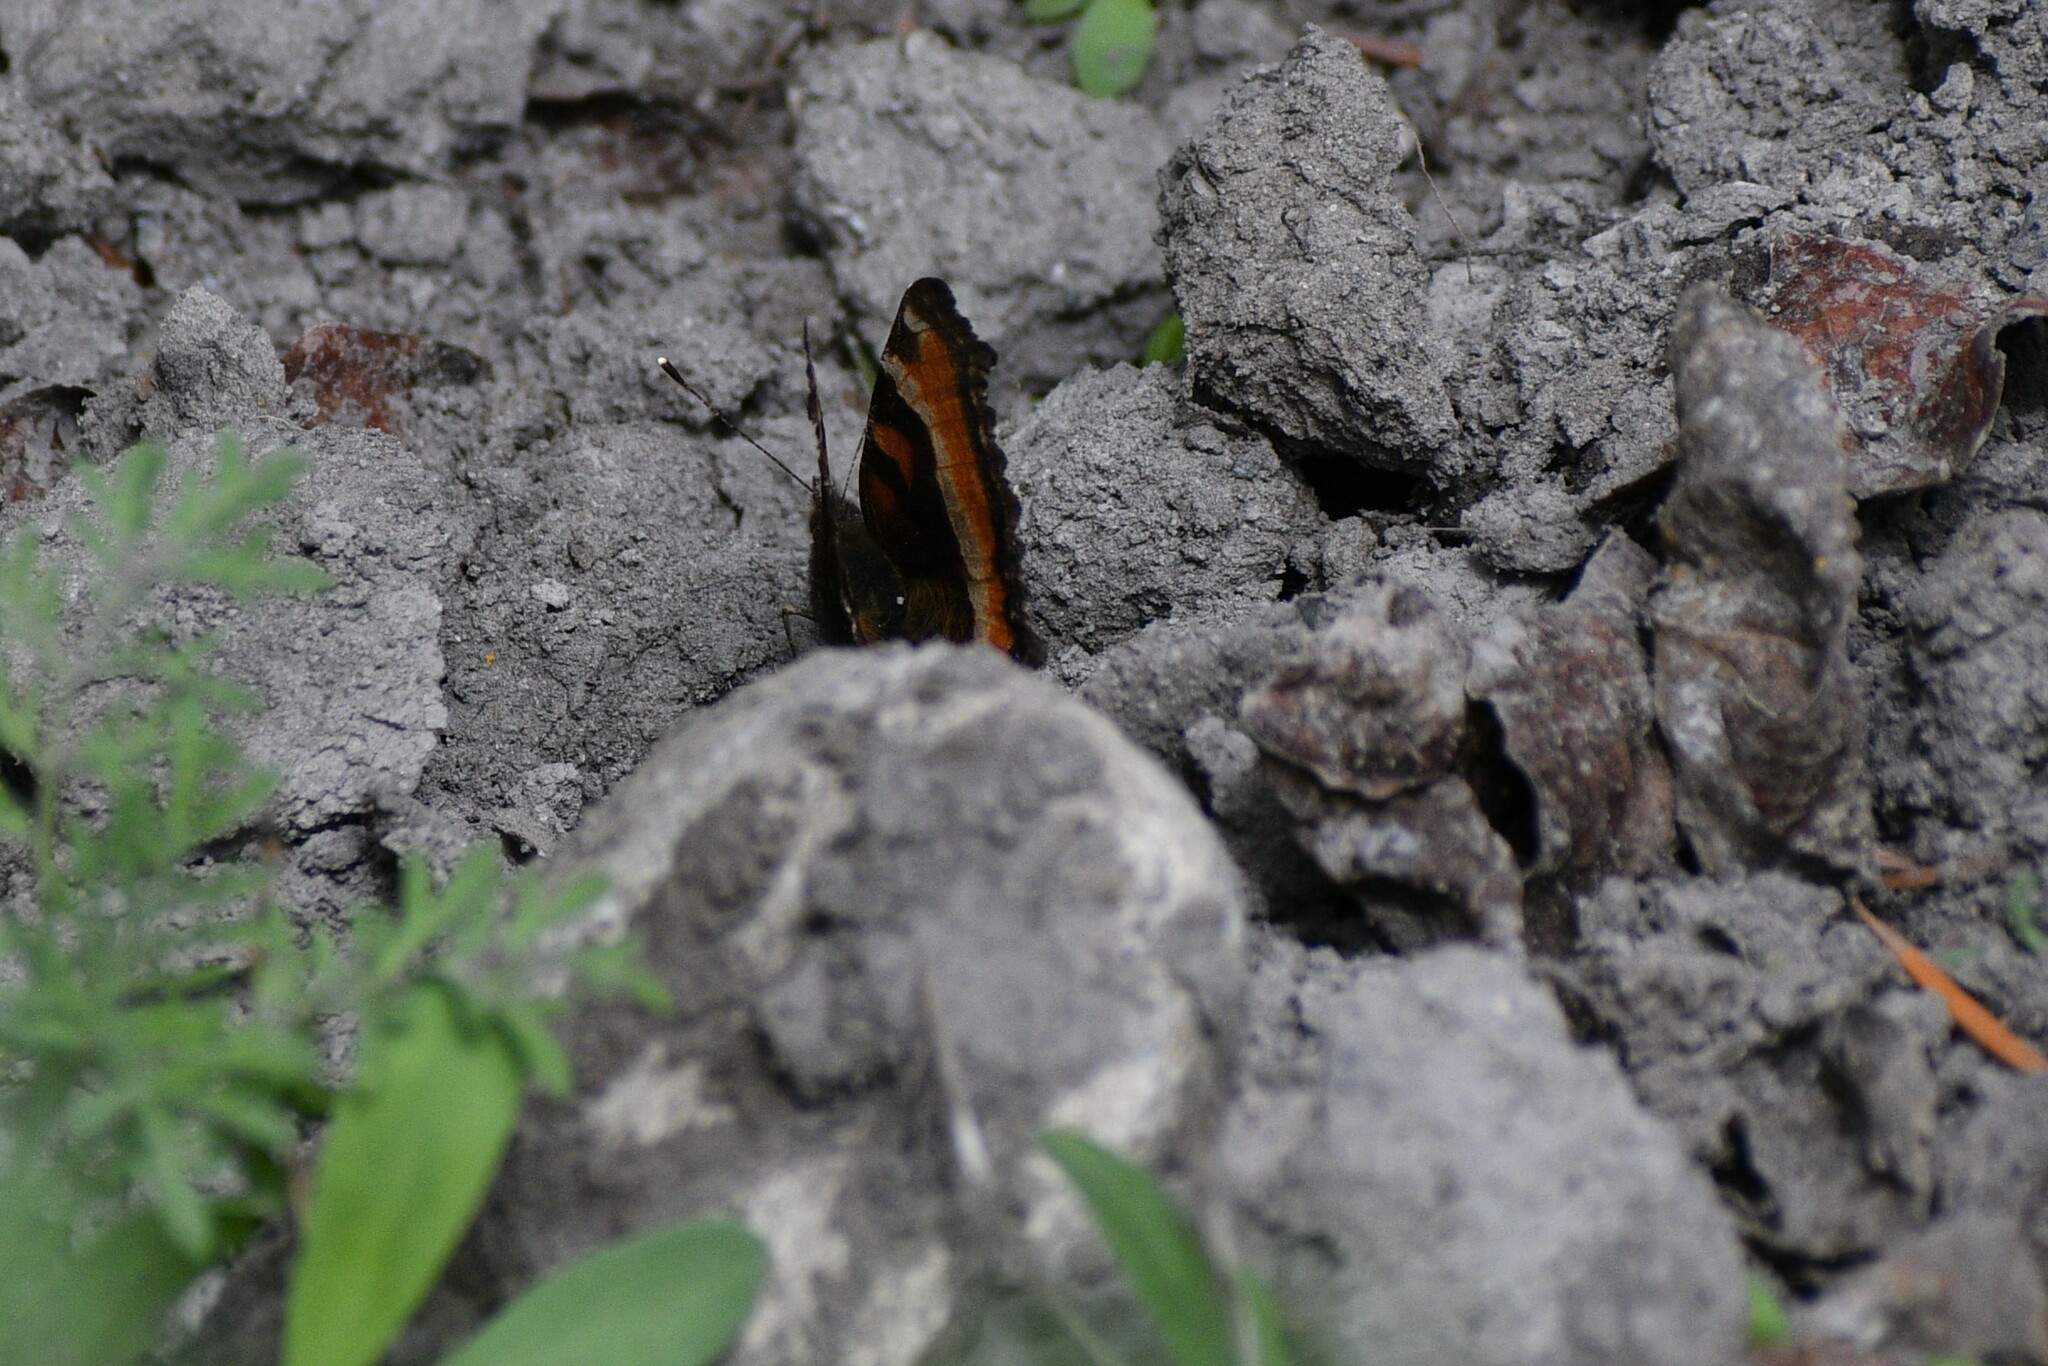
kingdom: Animalia
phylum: Arthropoda
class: Insecta
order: Lepidoptera
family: Nymphalidae
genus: Aglais
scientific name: Aglais milberti
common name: Milbert's tortoiseshell
